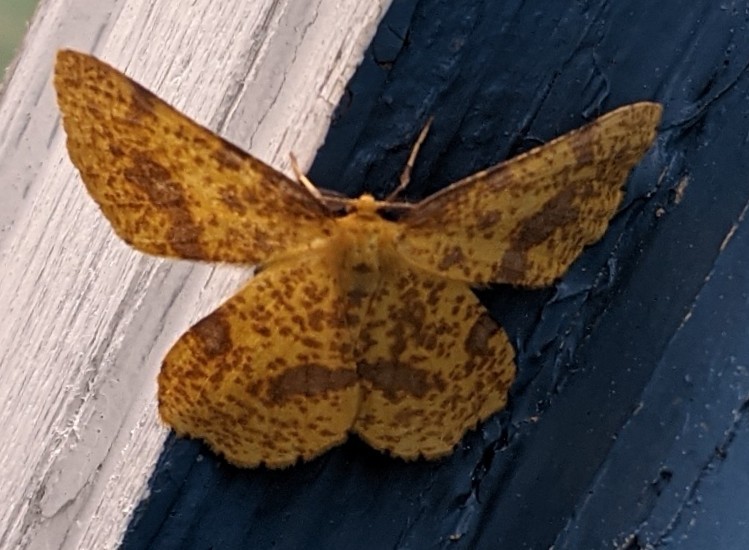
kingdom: Animalia
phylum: Arthropoda
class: Insecta
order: Lepidoptera
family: Geometridae
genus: Xanthotype
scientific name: Xanthotype
